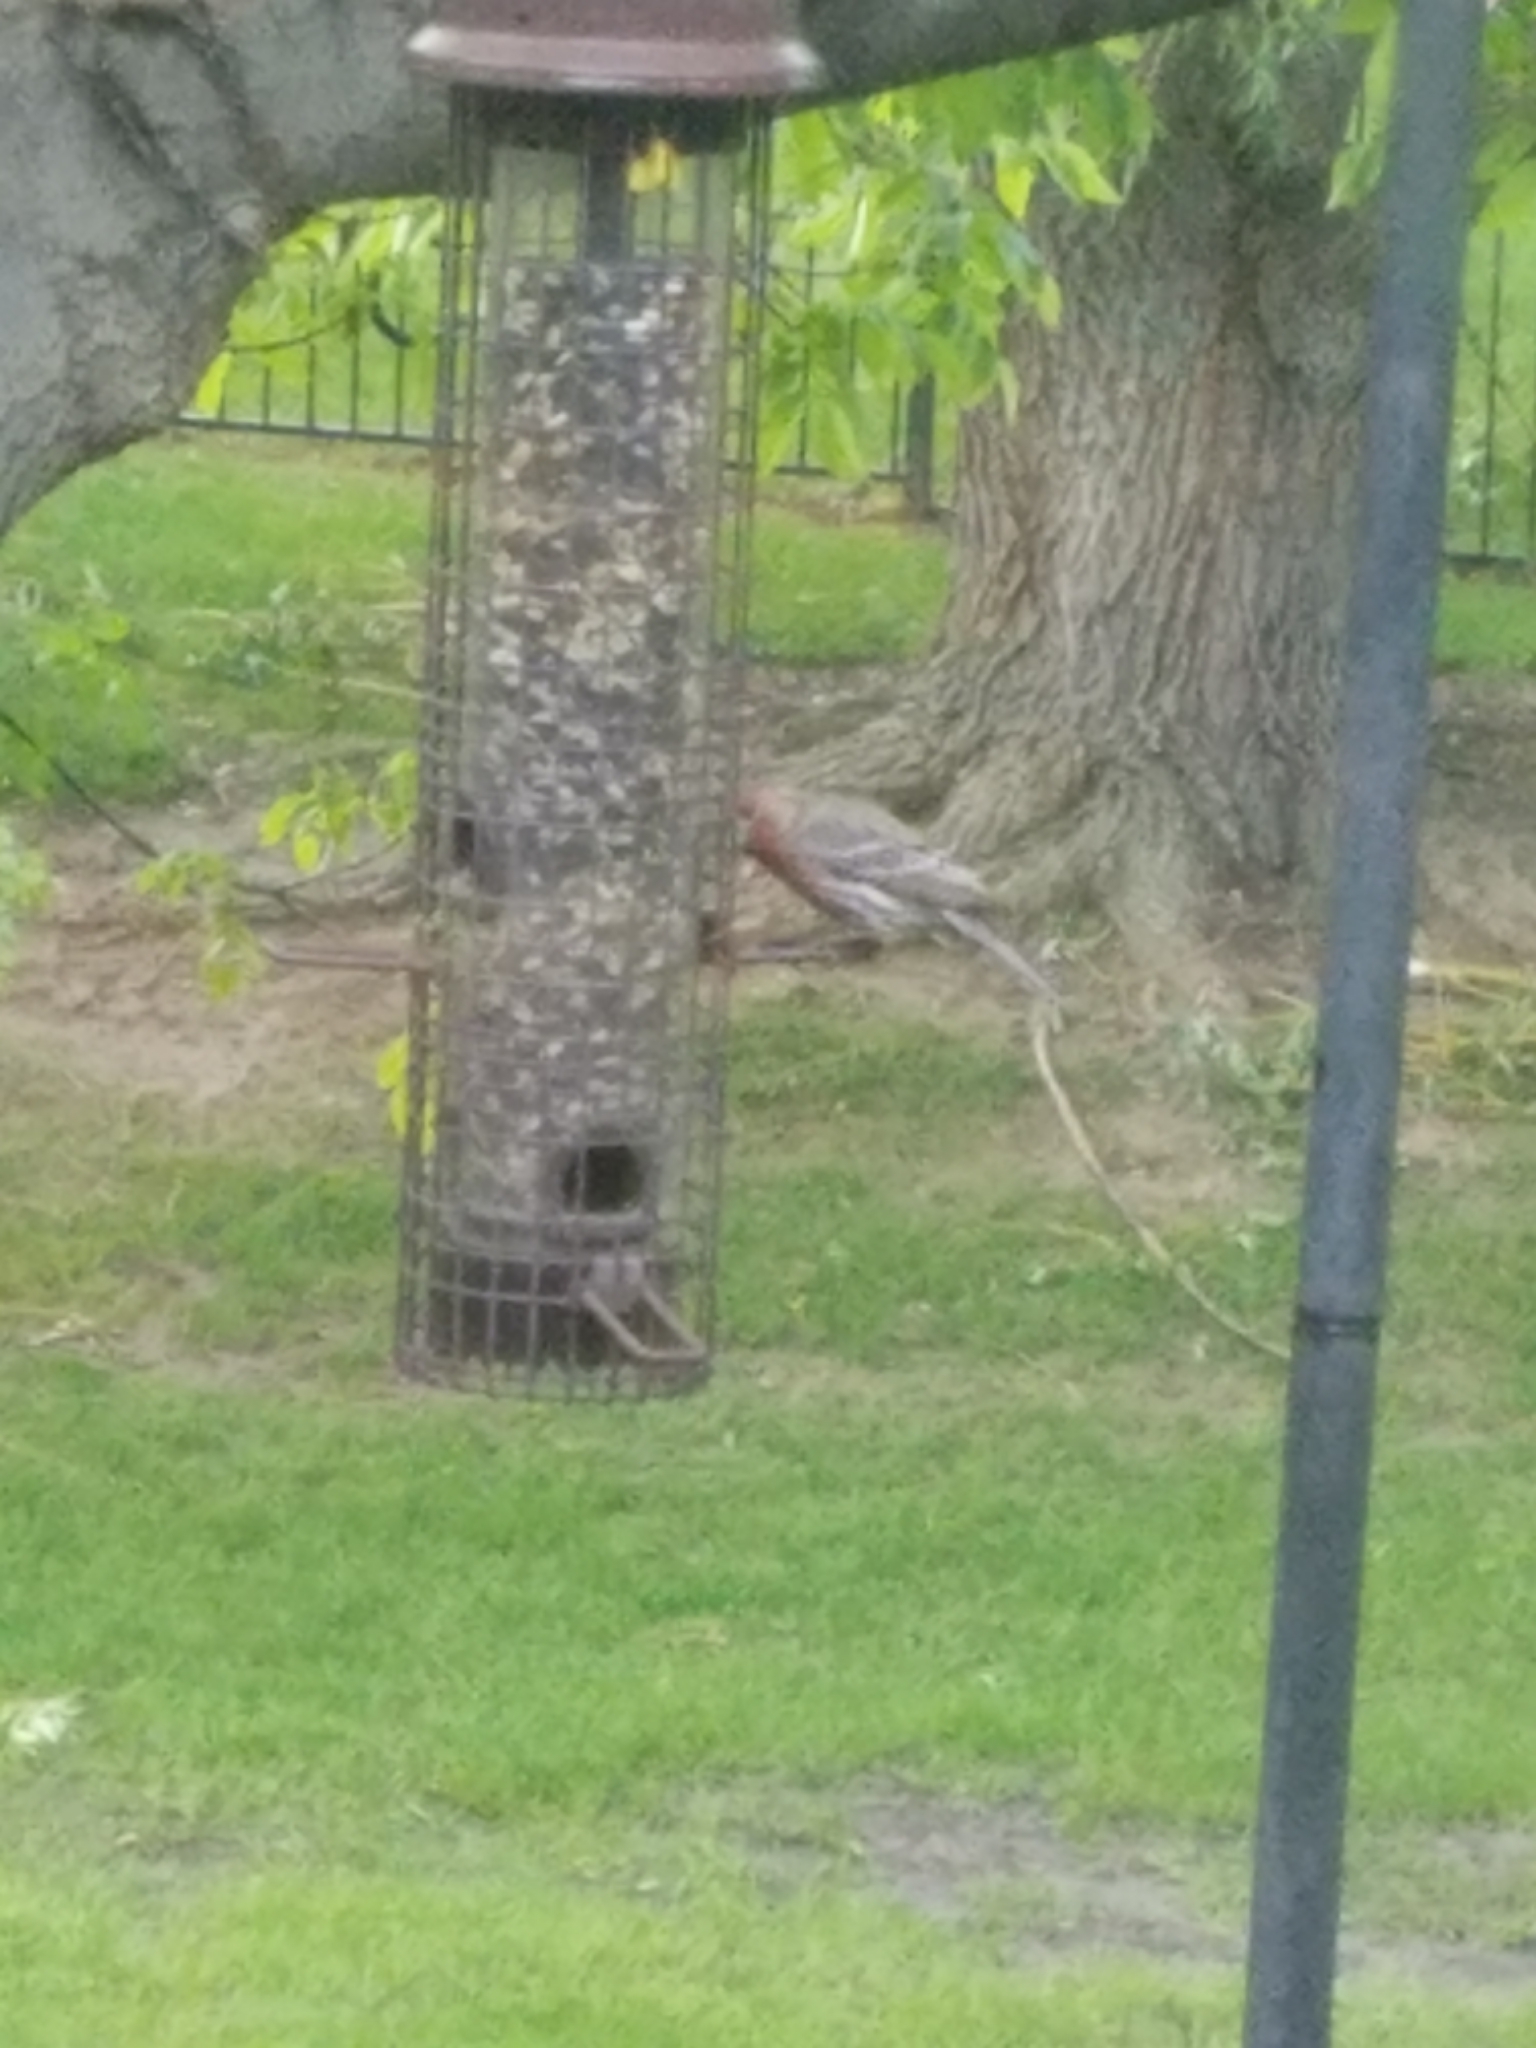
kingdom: Animalia
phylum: Chordata
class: Aves
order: Passeriformes
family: Fringillidae
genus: Haemorhous
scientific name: Haemorhous mexicanus
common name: House finch
